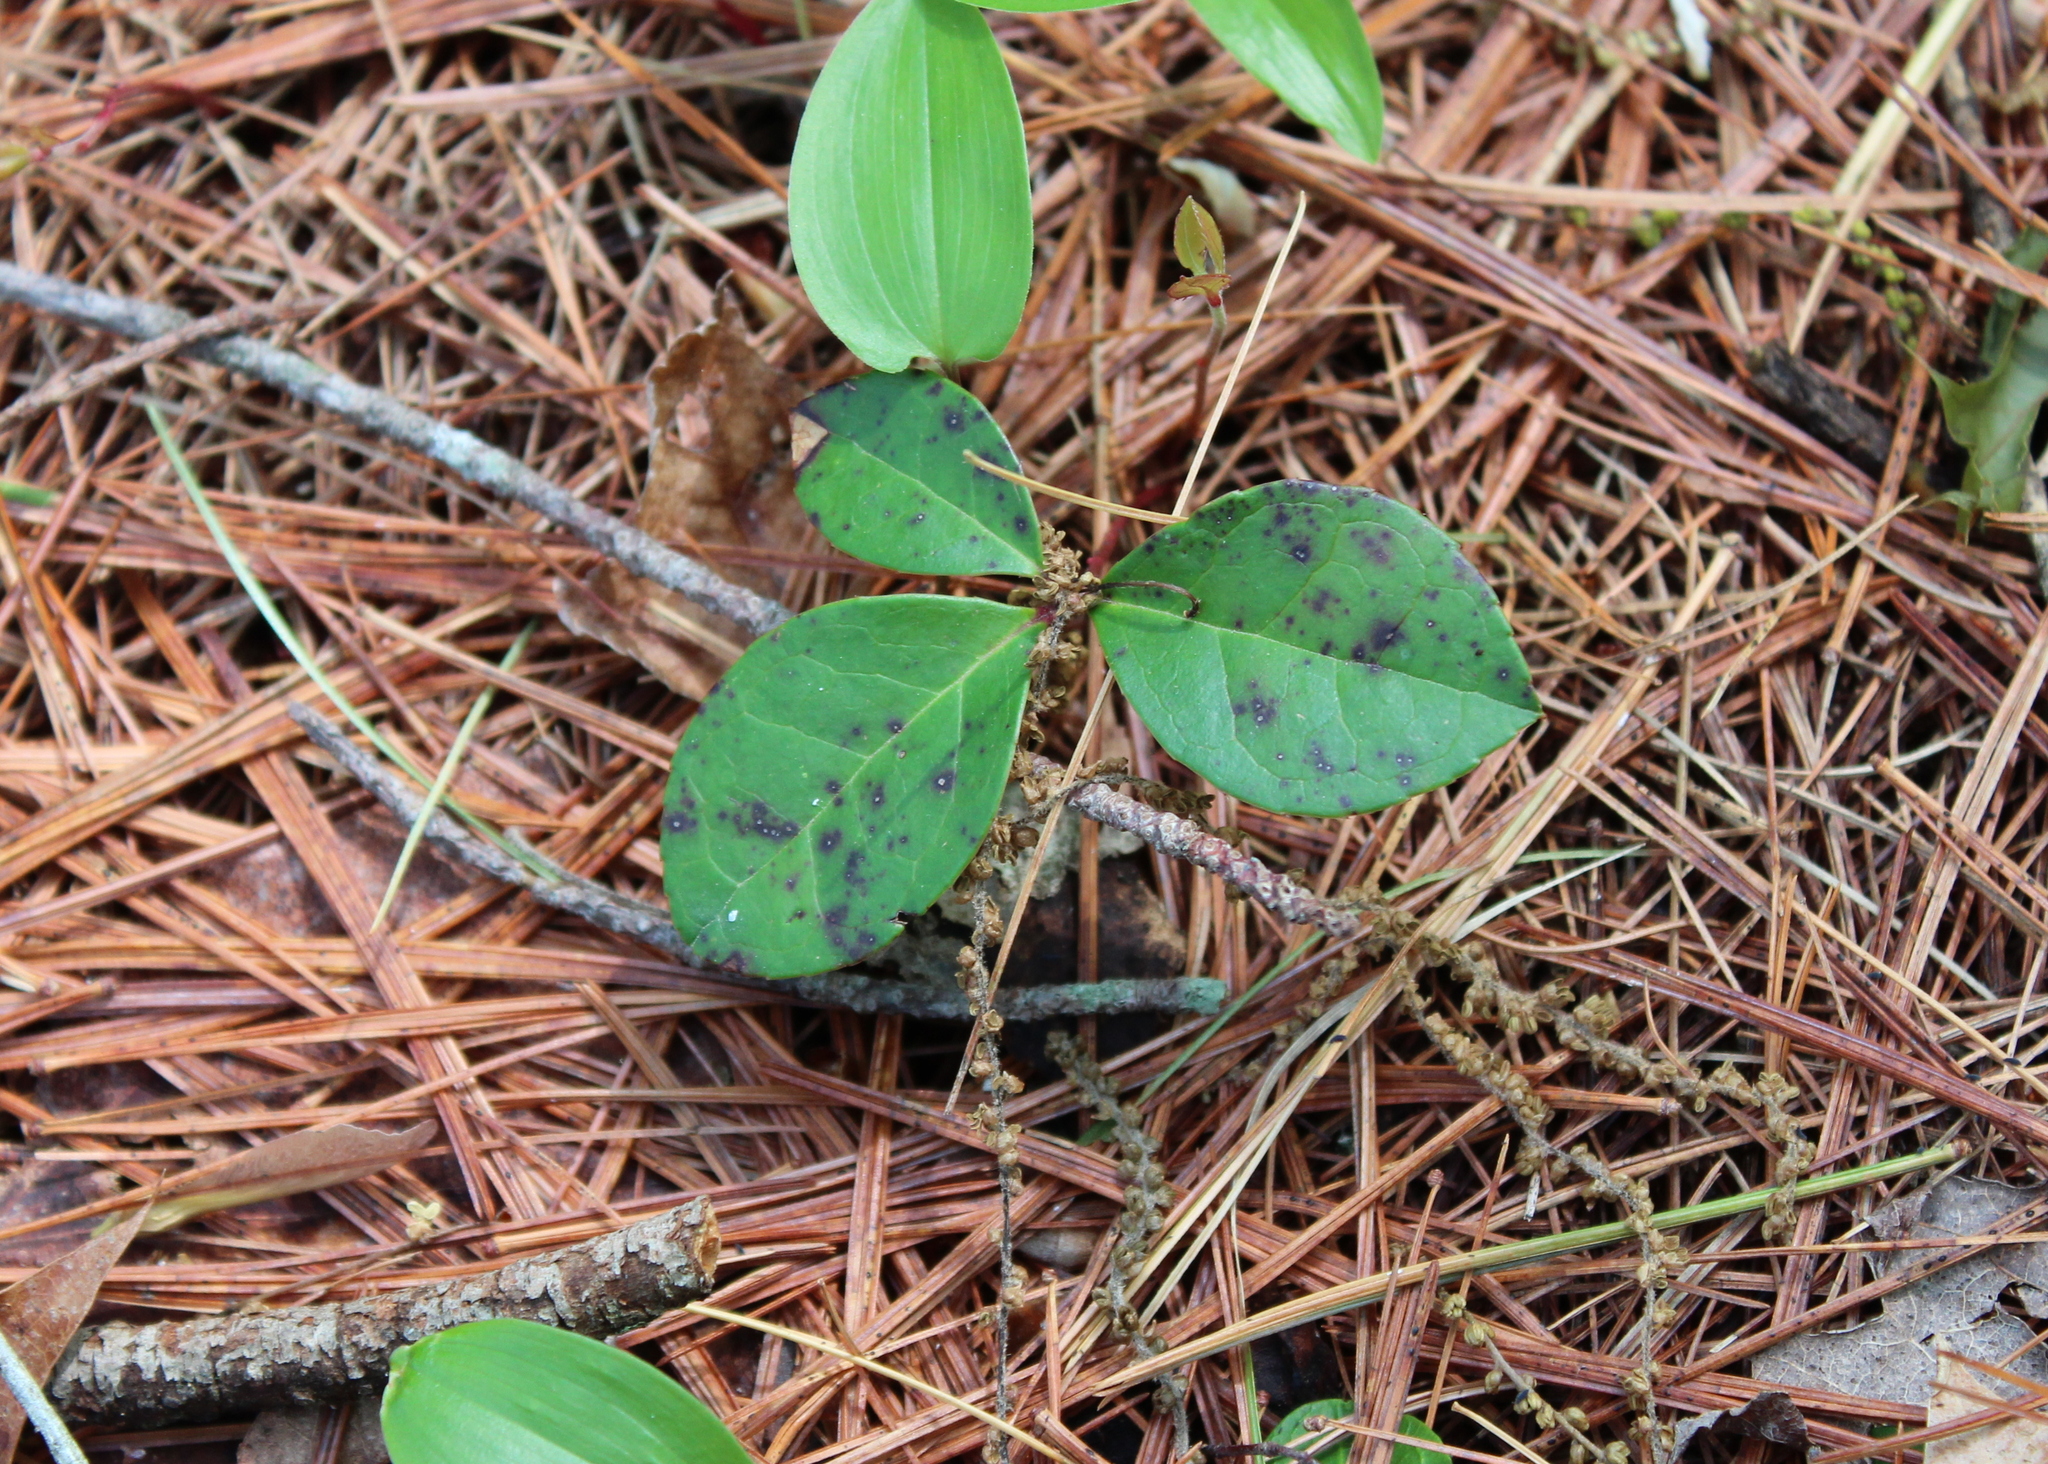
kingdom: Plantae
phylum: Tracheophyta
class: Magnoliopsida
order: Ericales
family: Ericaceae
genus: Gaultheria
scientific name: Gaultheria procumbens
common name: Checkerberry
